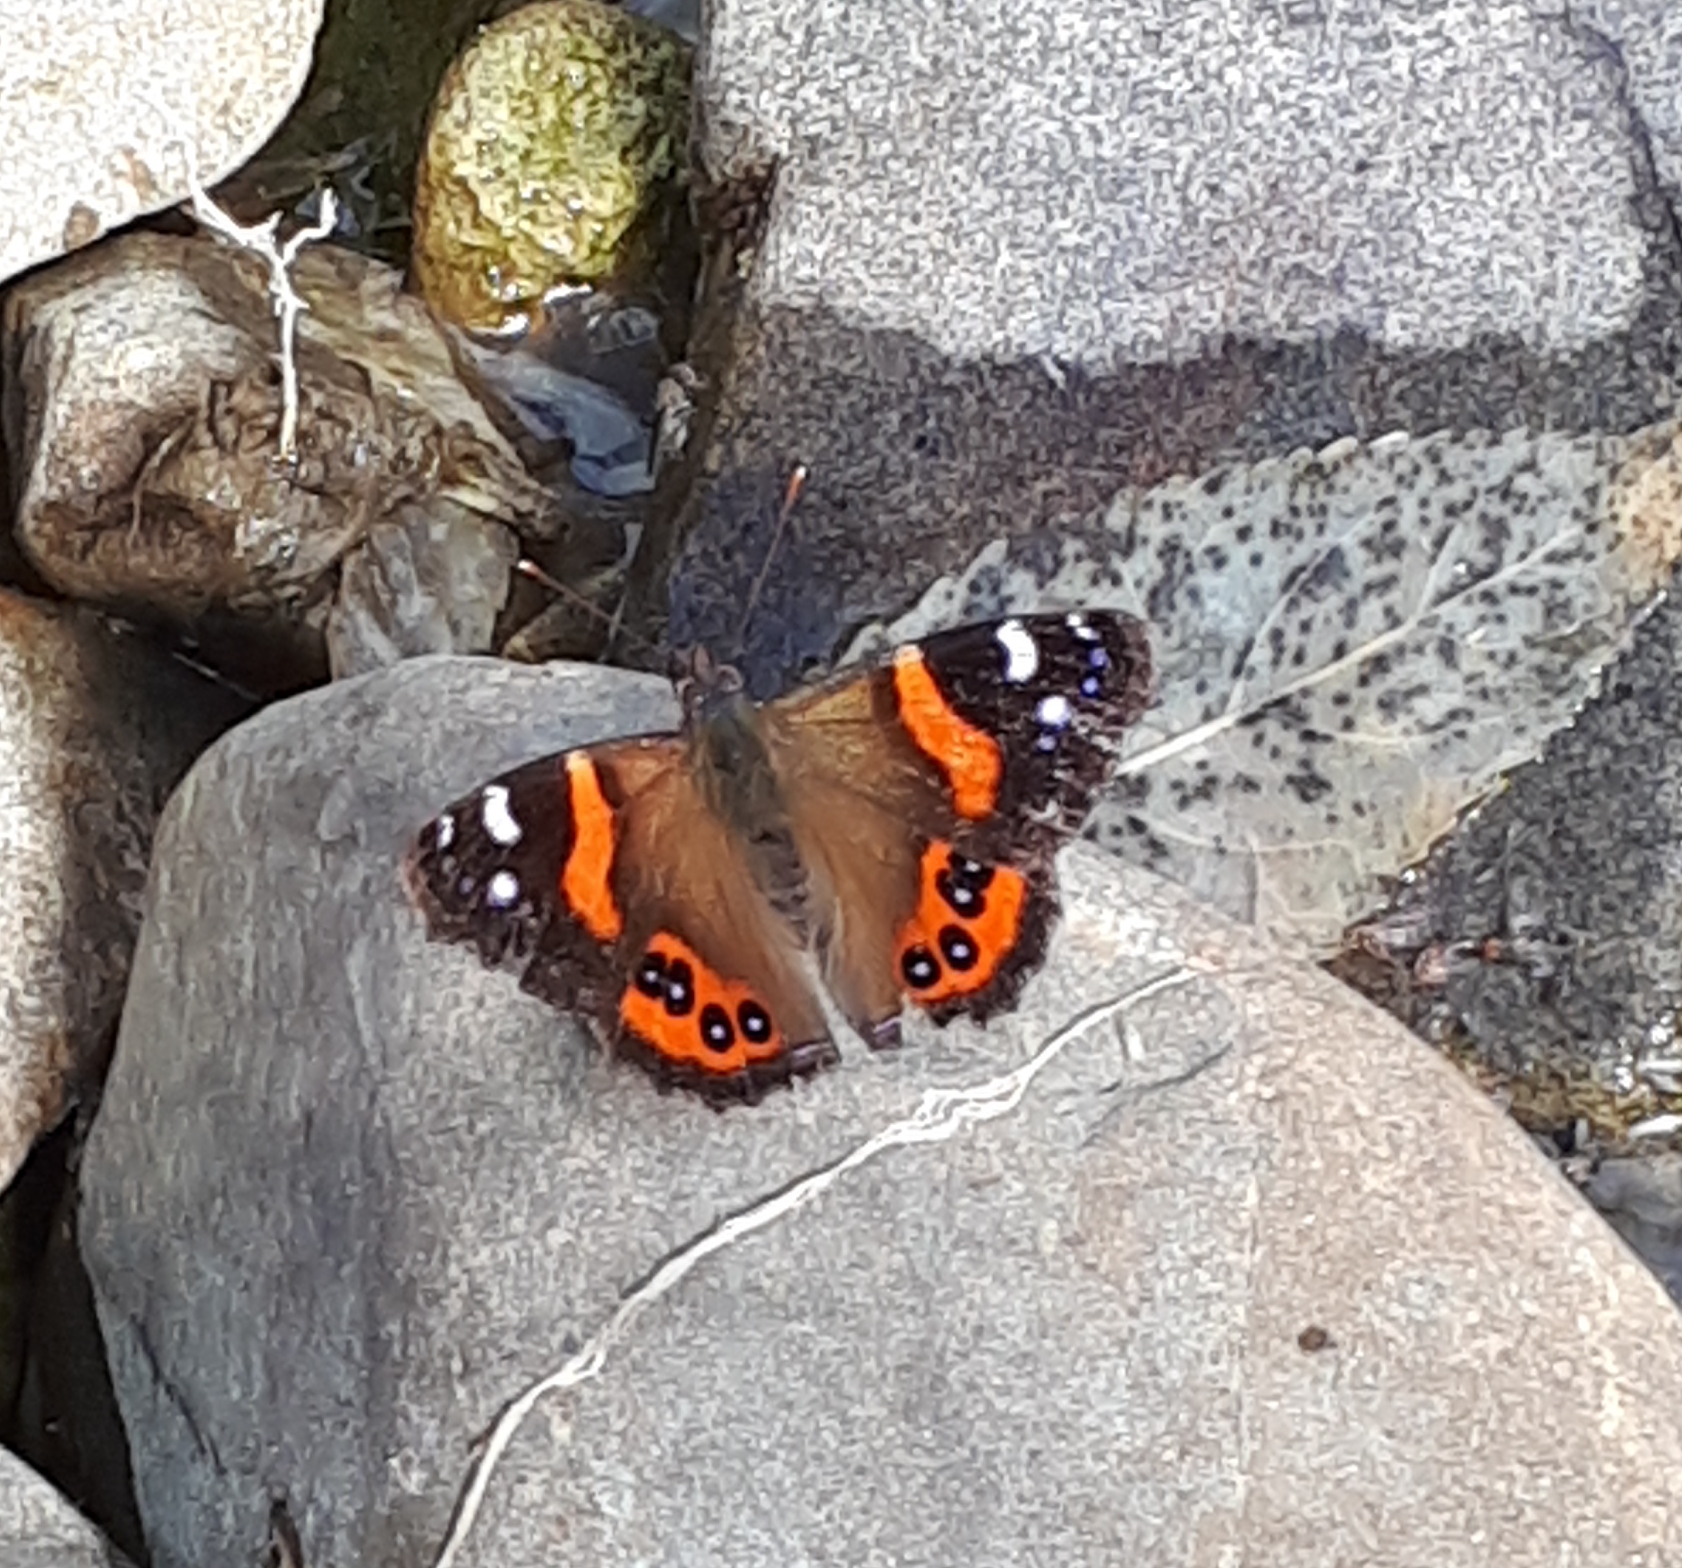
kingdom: Animalia
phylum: Arthropoda
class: Insecta
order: Lepidoptera
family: Nymphalidae
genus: Vanessa
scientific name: Vanessa gonerilla
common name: New zealand red admiral
